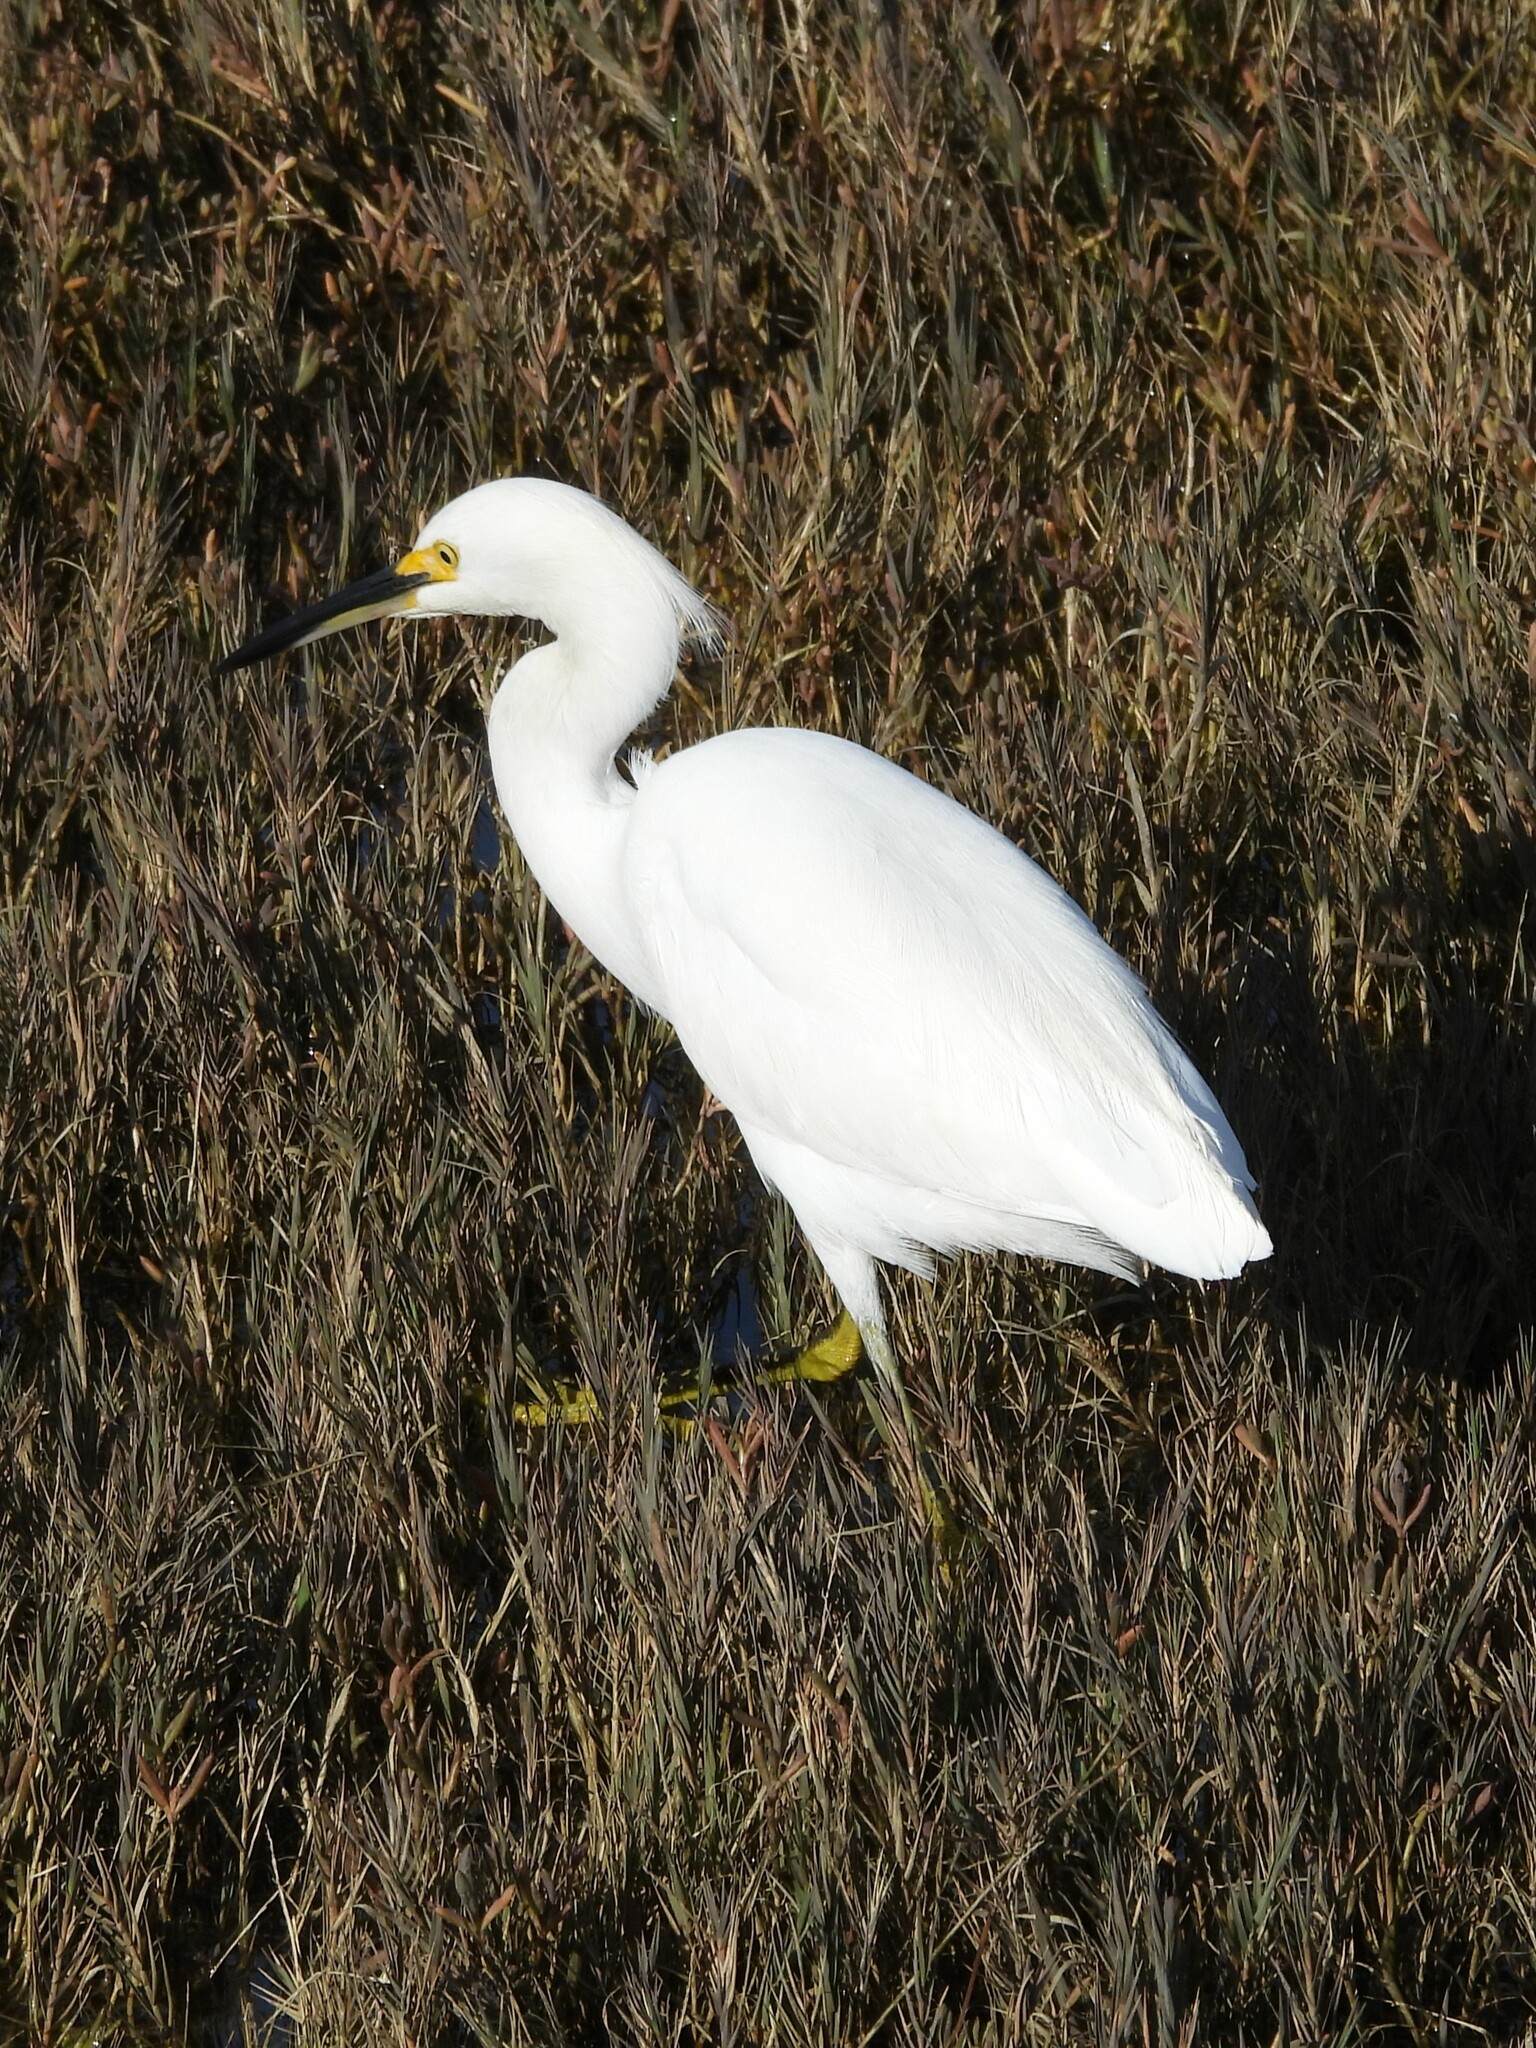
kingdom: Animalia
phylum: Chordata
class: Aves
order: Pelecaniformes
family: Ardeidae
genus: Egretta
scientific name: Egretta thula
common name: Snowy egret
